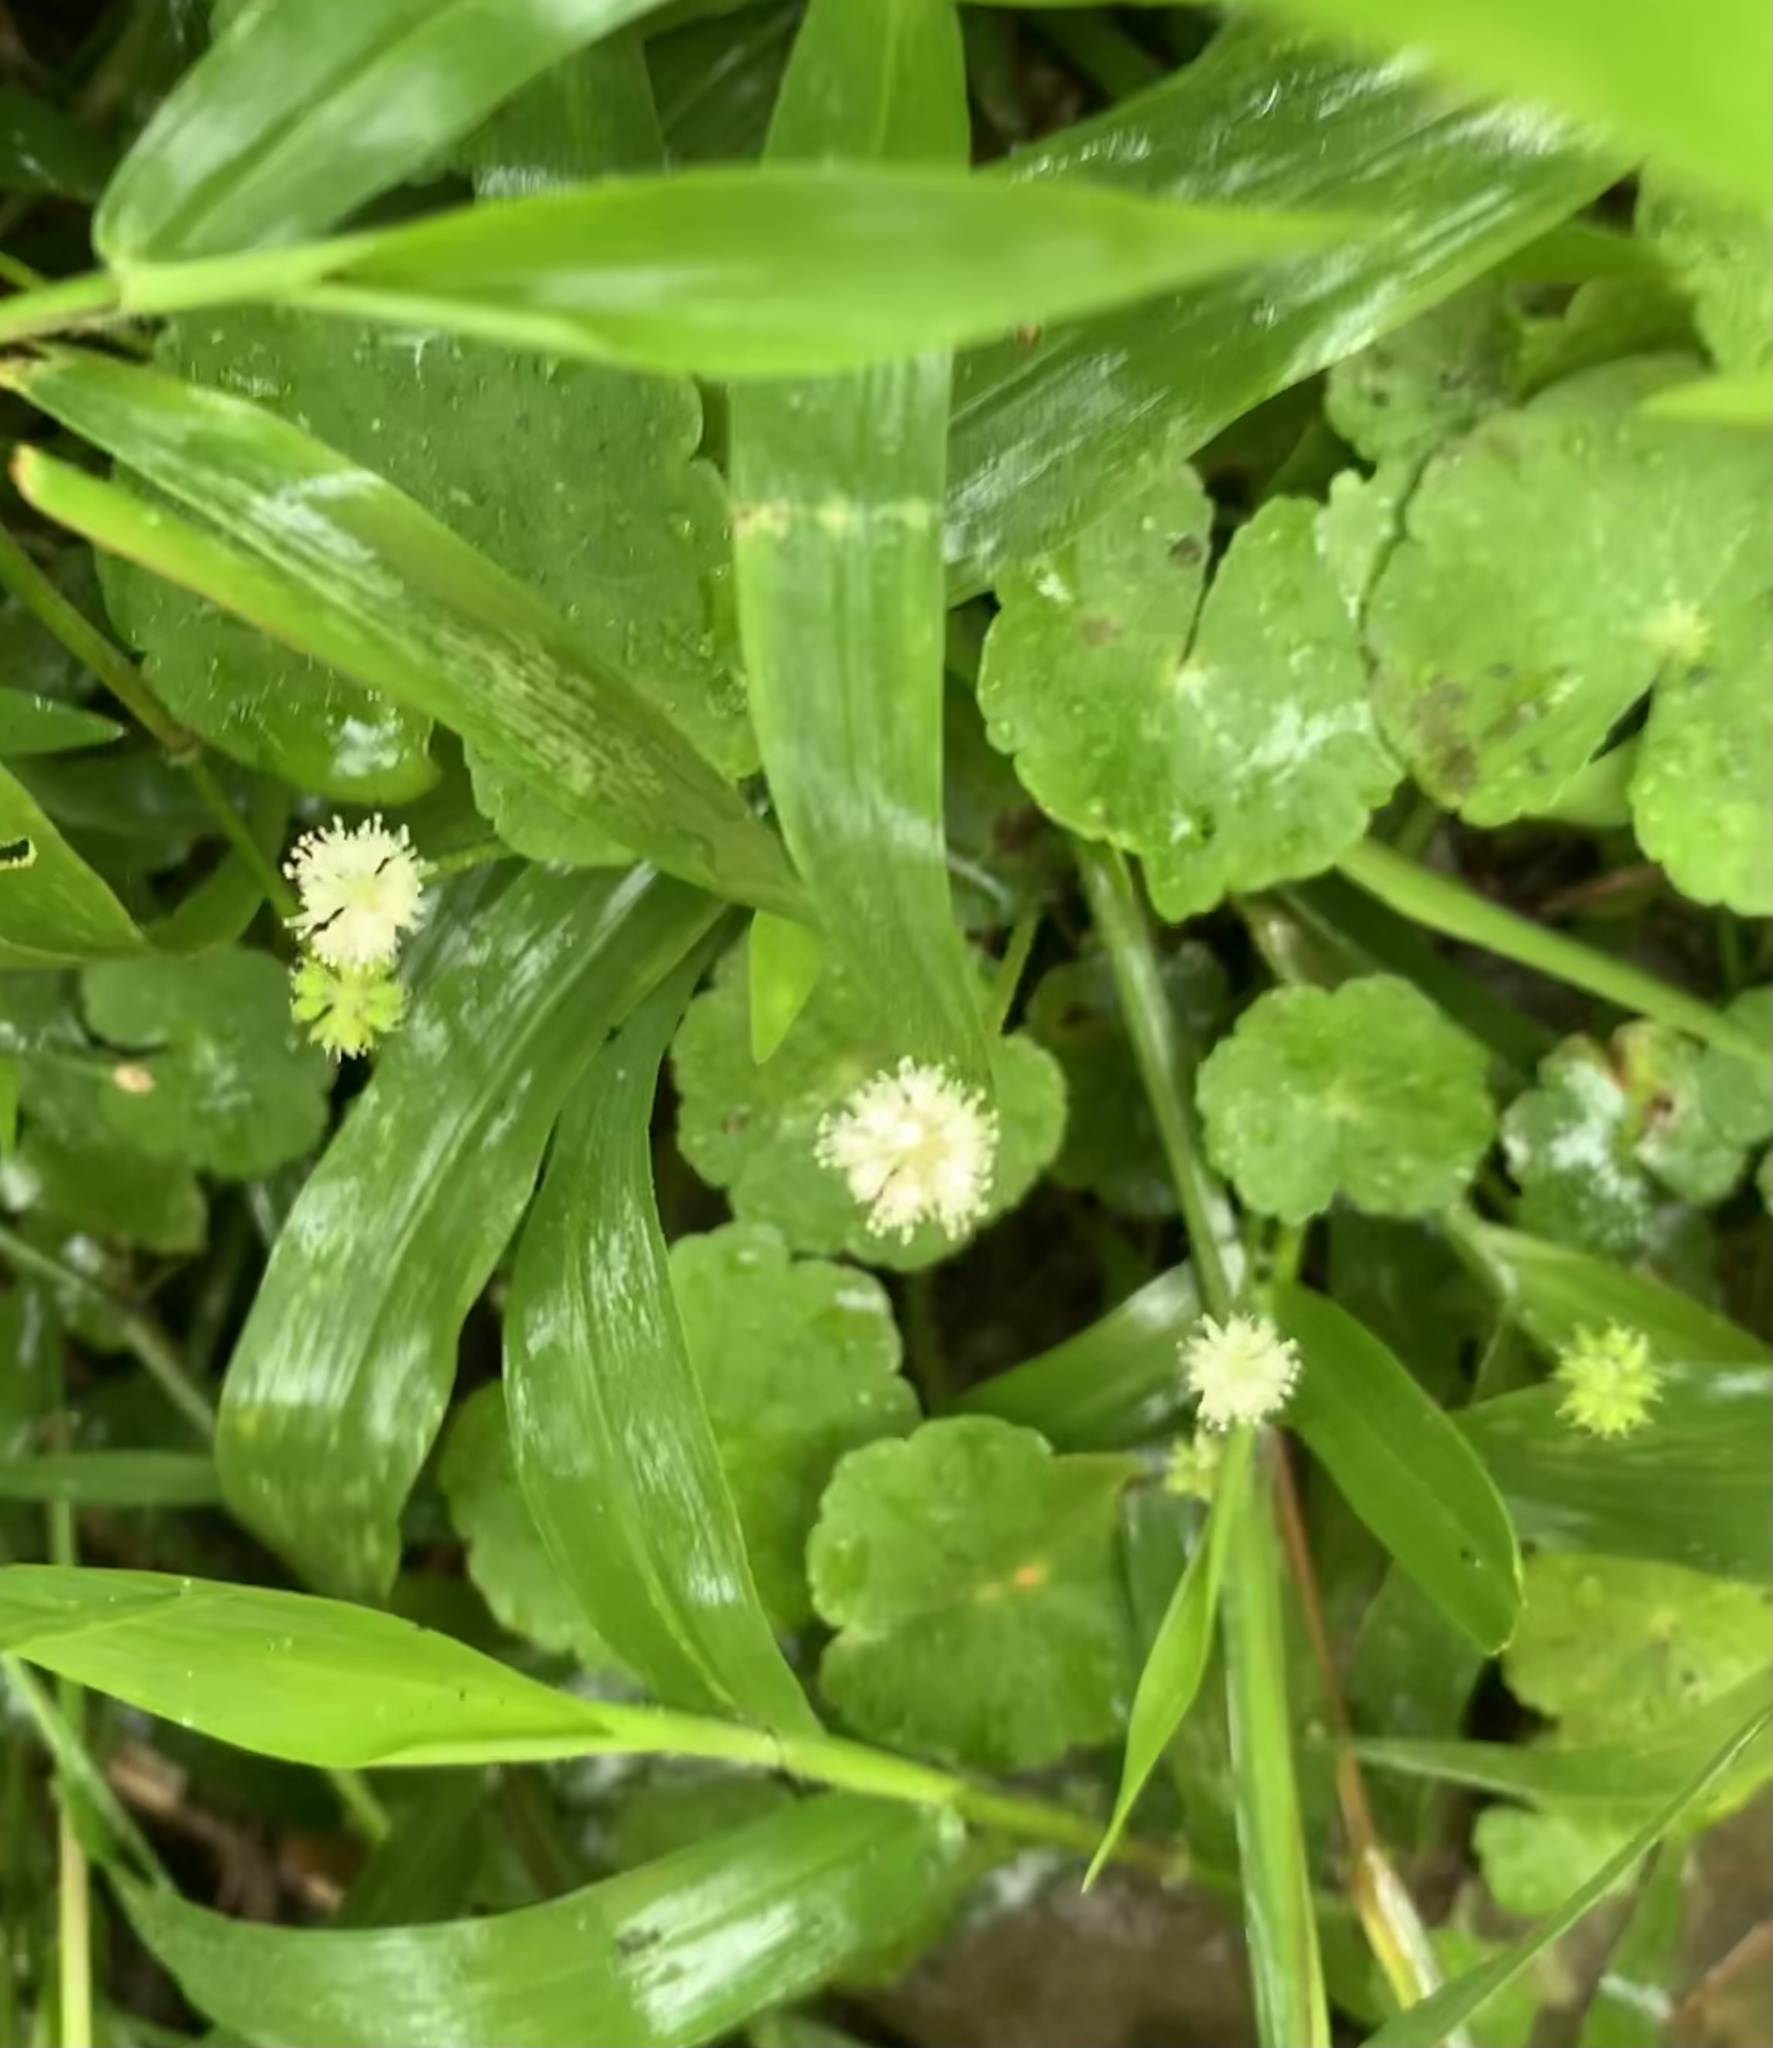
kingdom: Plantae
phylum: Tracheophyta
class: Magnoliopsida
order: Apiales
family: Araliaceae
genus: Hydrocotyle
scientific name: Hydrocotyle leucocephala
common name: Brazilian pennywort
